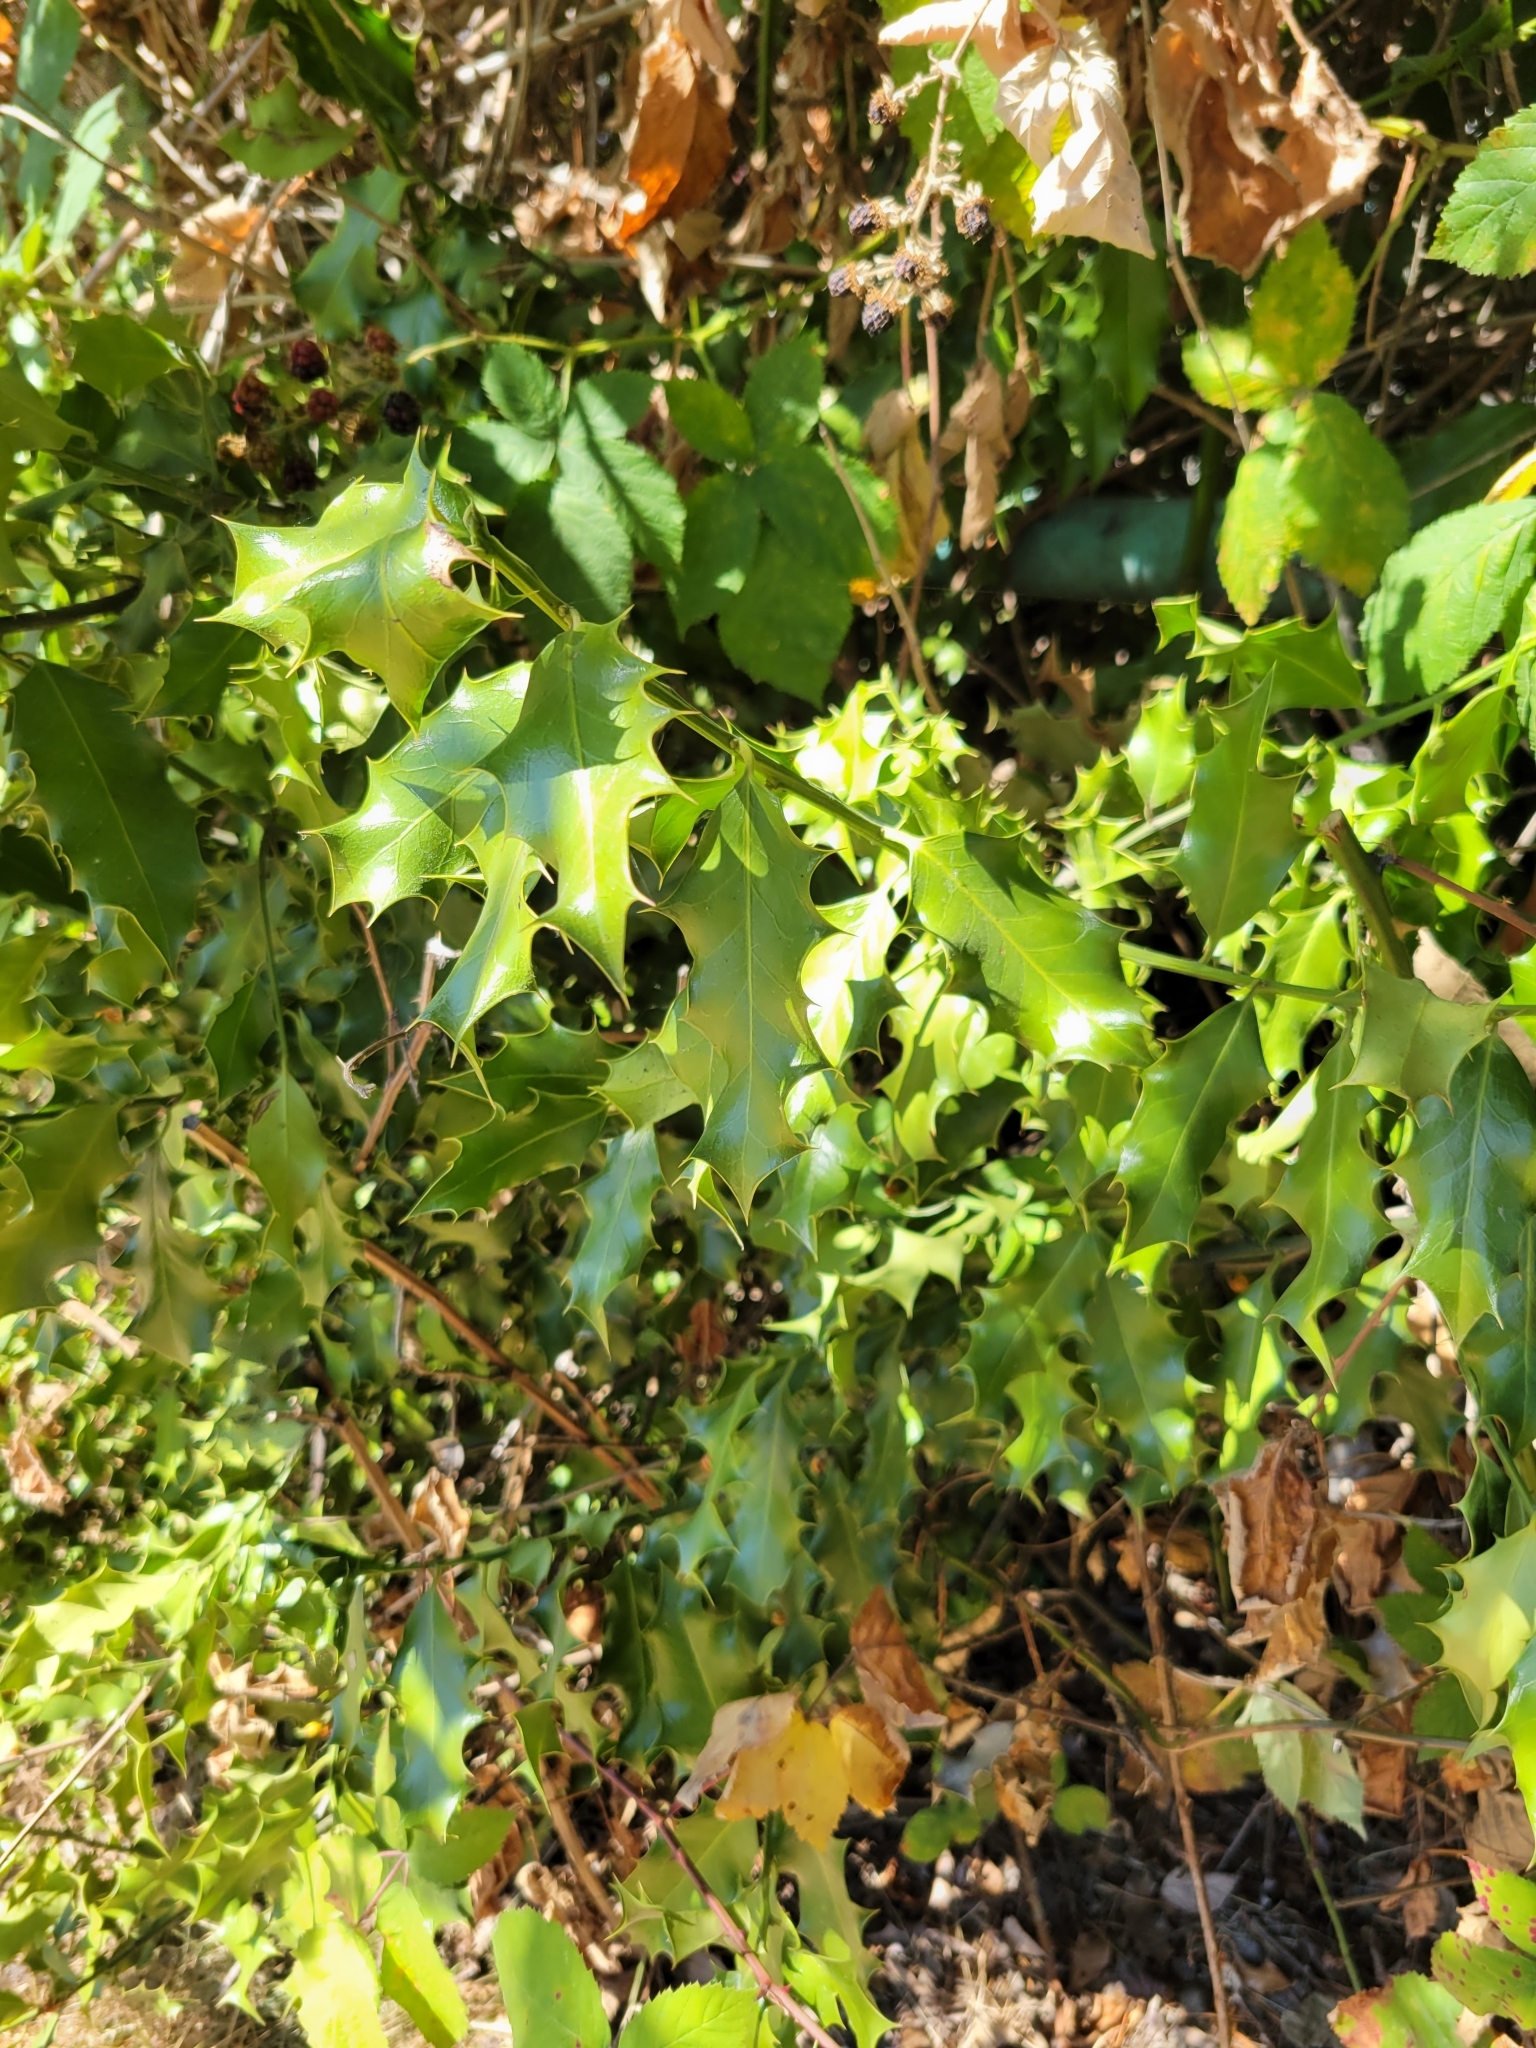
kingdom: Plantae
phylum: Tracheophyta
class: Magnoliopsida
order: Aquifoliales
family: Aquifoliaceae
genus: Ilex
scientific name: Ilex aquifolium
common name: English holly
